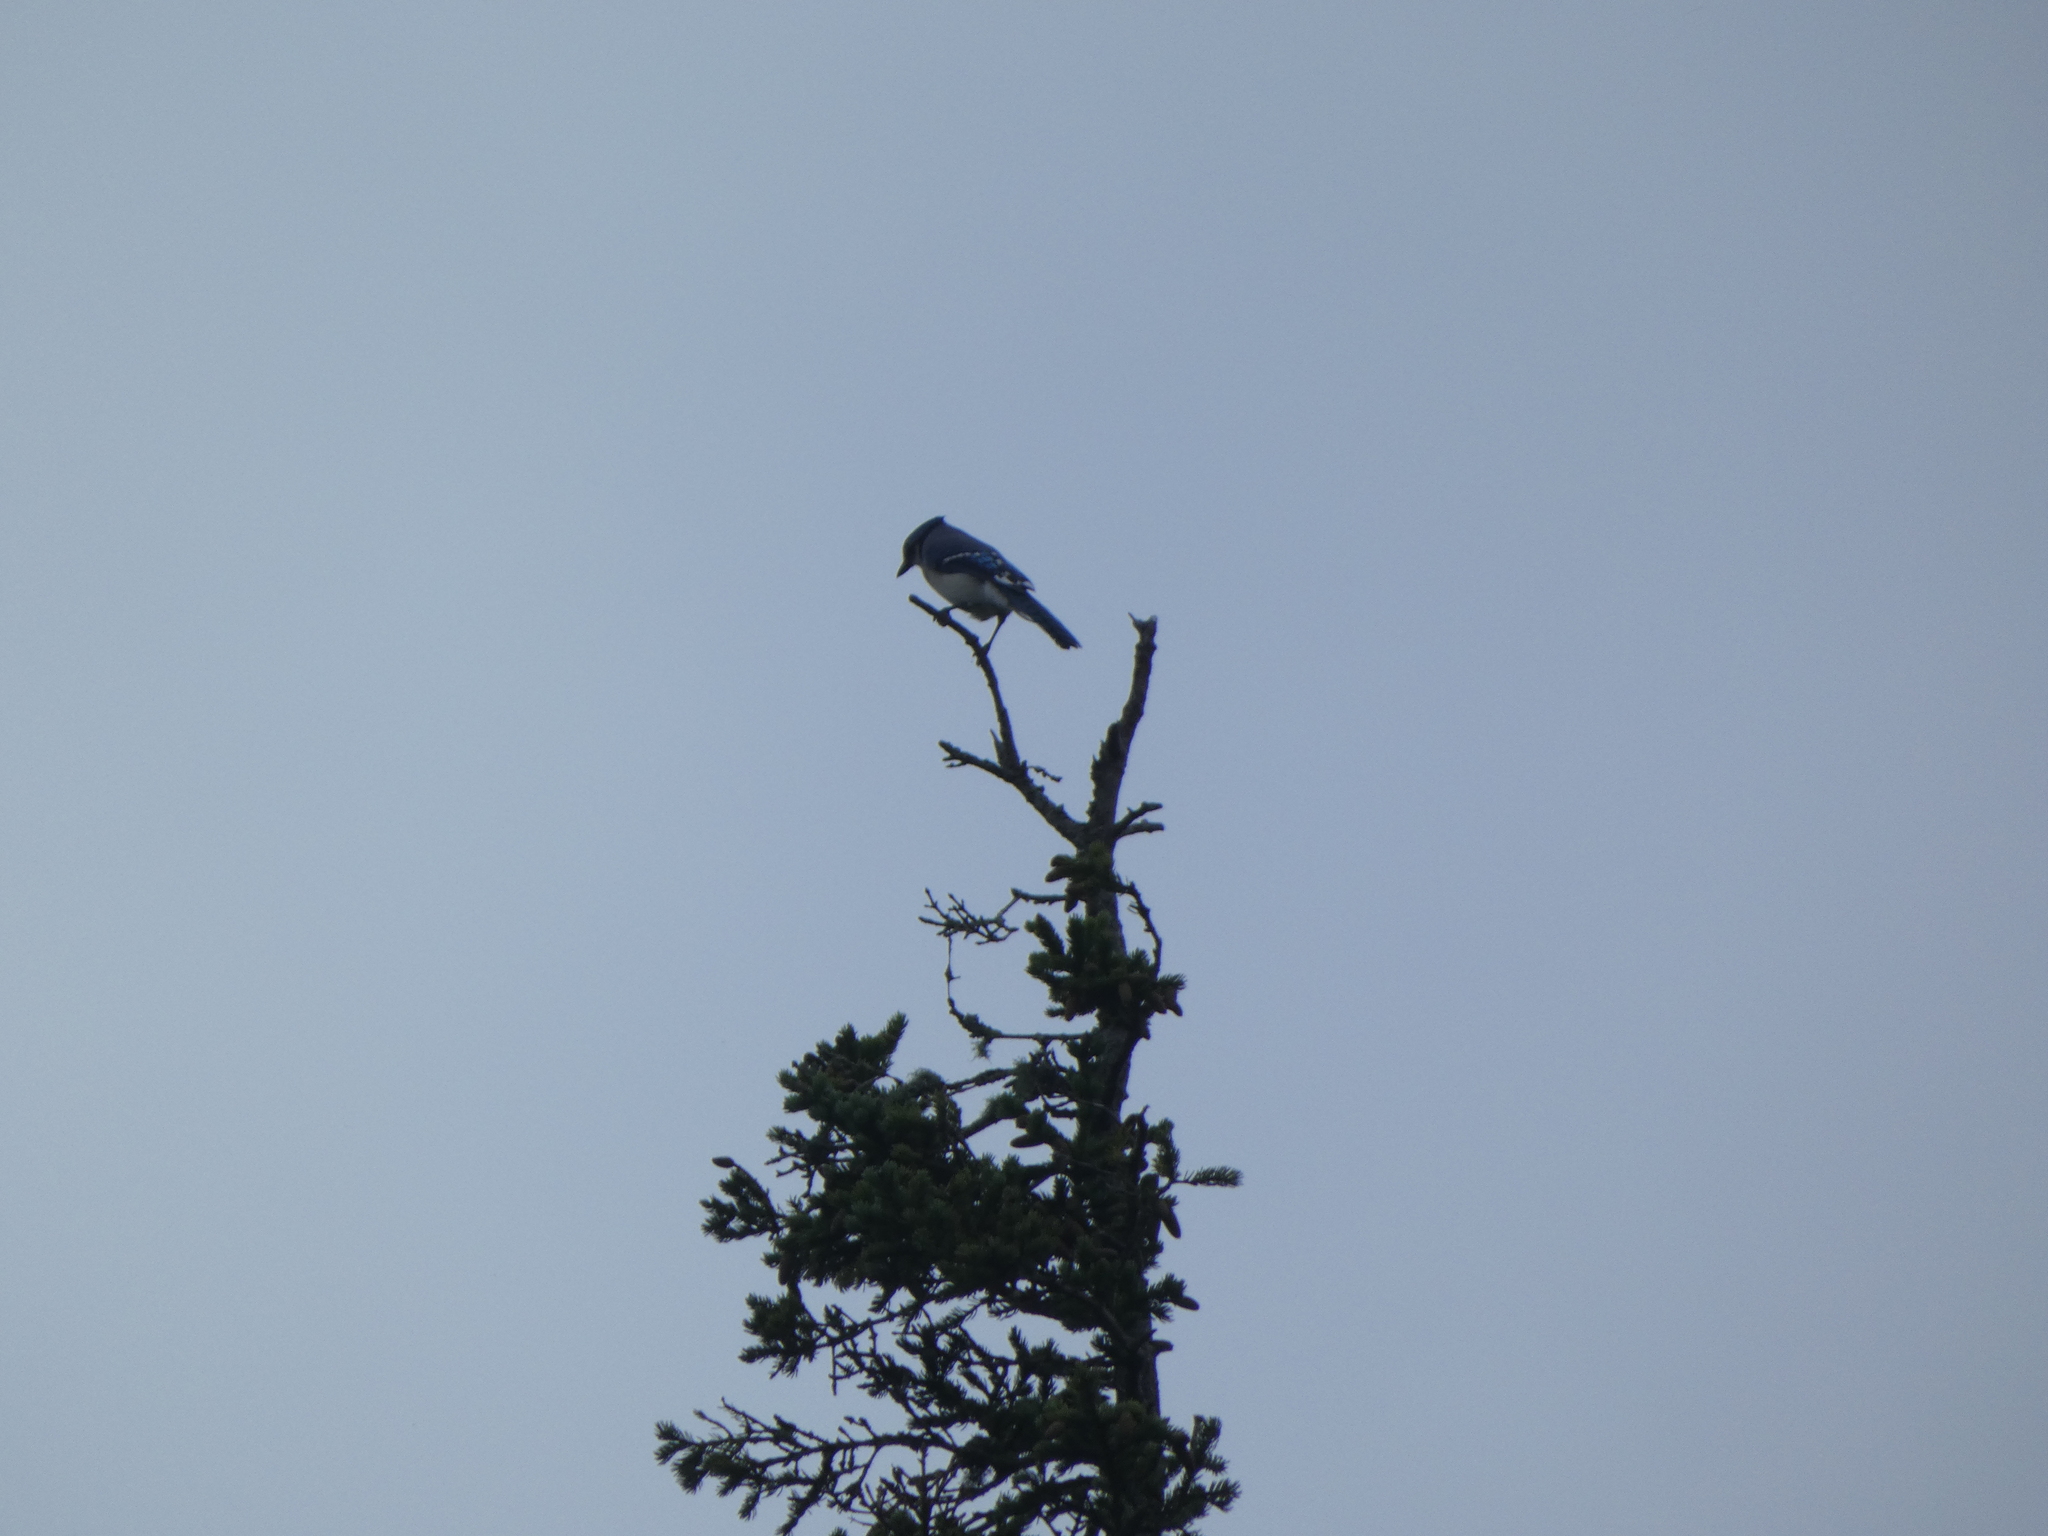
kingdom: Animalia
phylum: Chordata
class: Aves
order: Passeriformes
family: Corvidae
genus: Cyanocitta
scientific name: Cyanocitta cristata
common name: Blue jay
